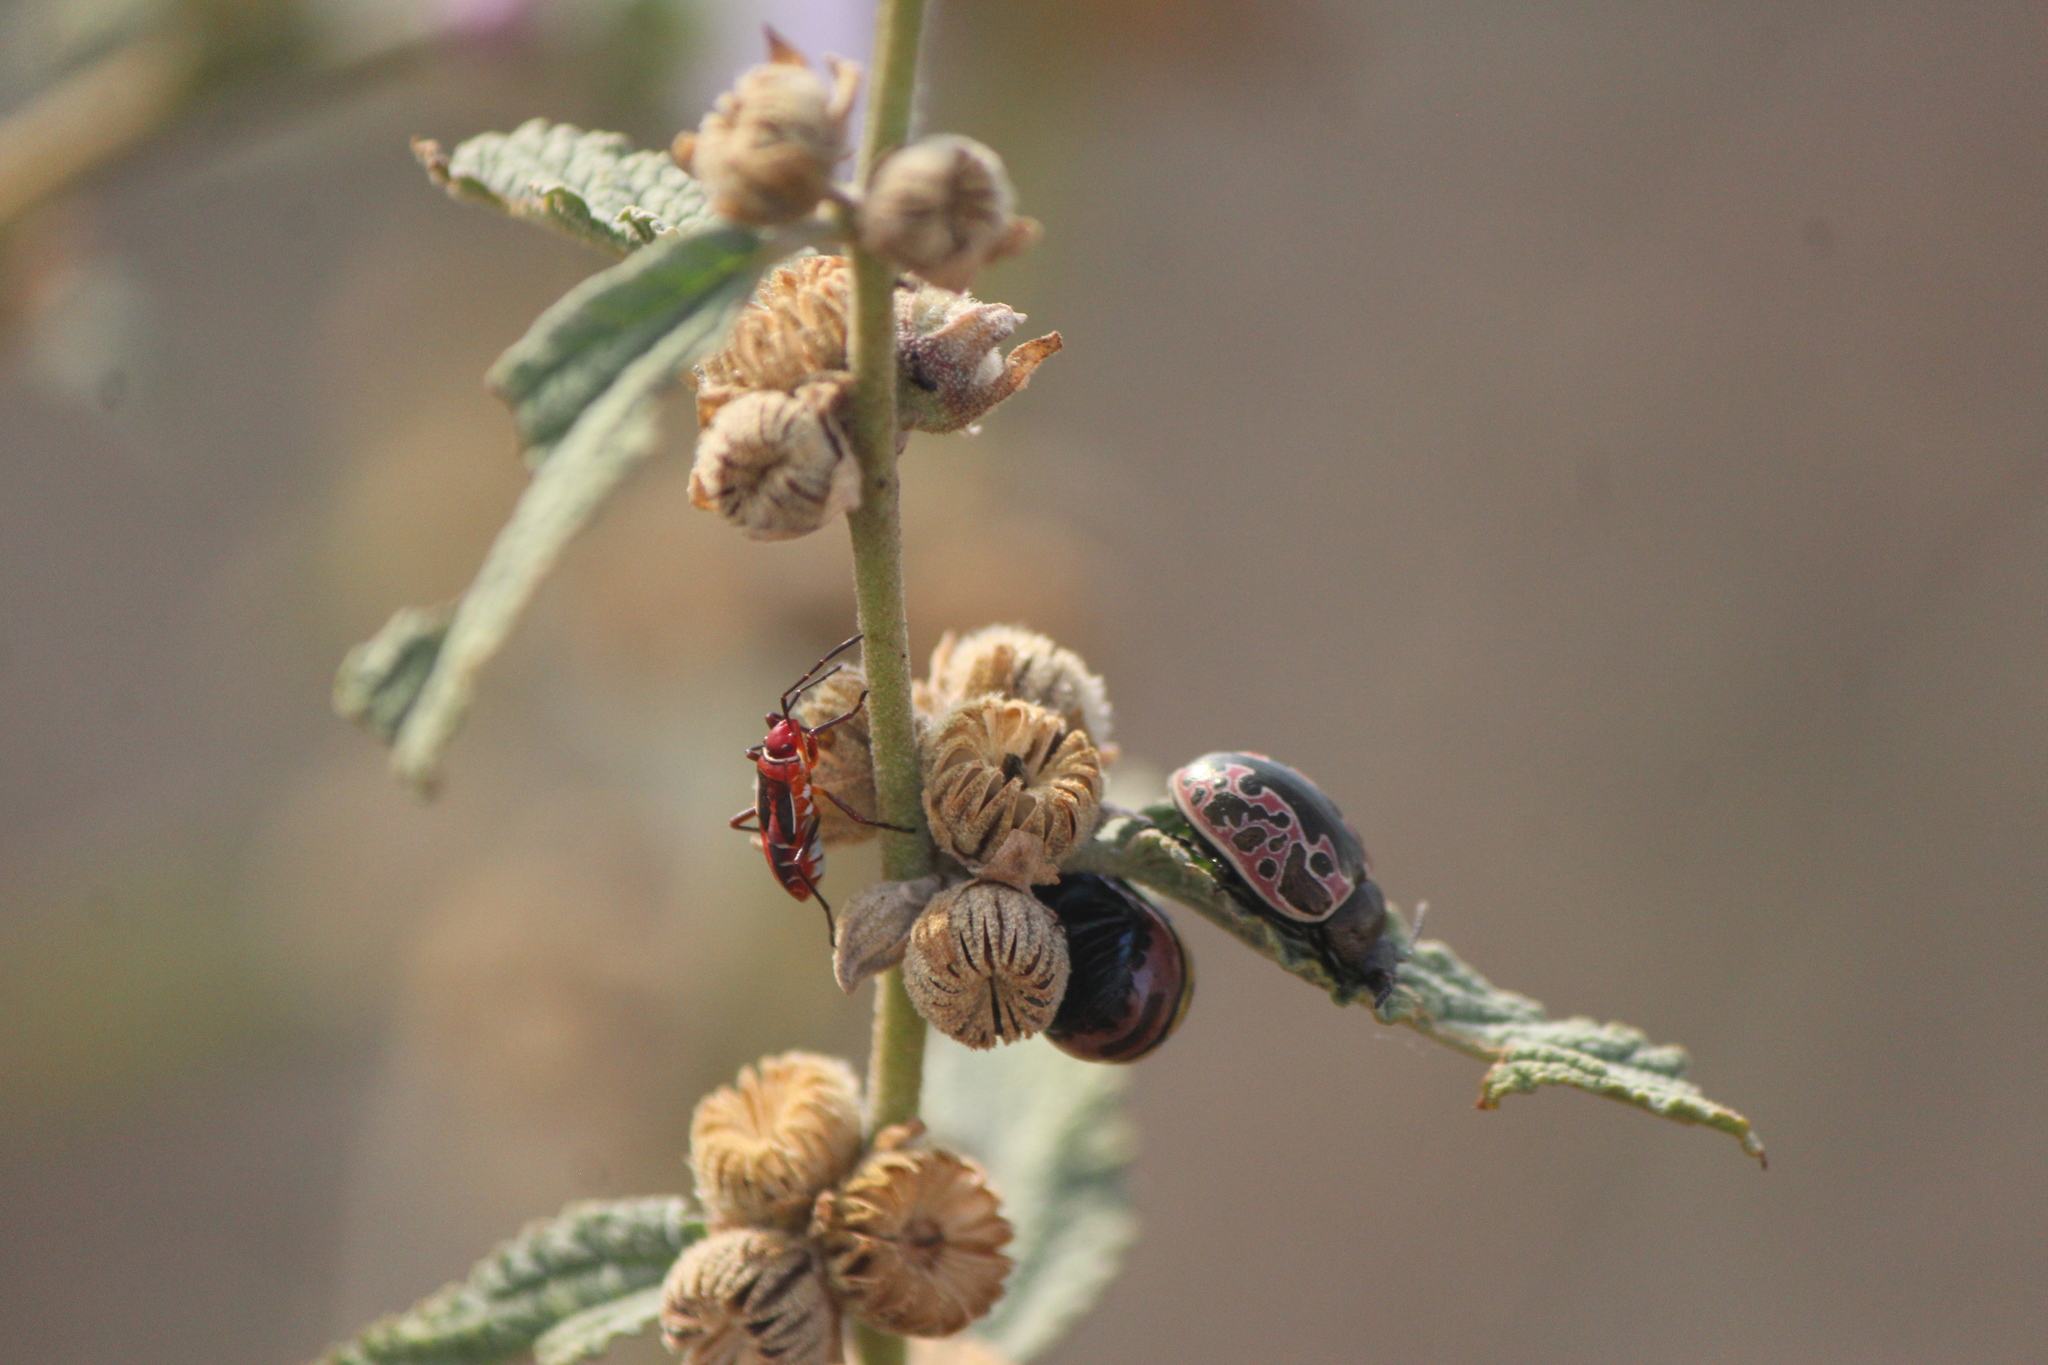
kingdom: Animalia
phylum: Arthropoda
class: Insecta
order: Coleoptera
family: Chrysomelidae
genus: Calligrapha
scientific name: Calligrapha diversa
